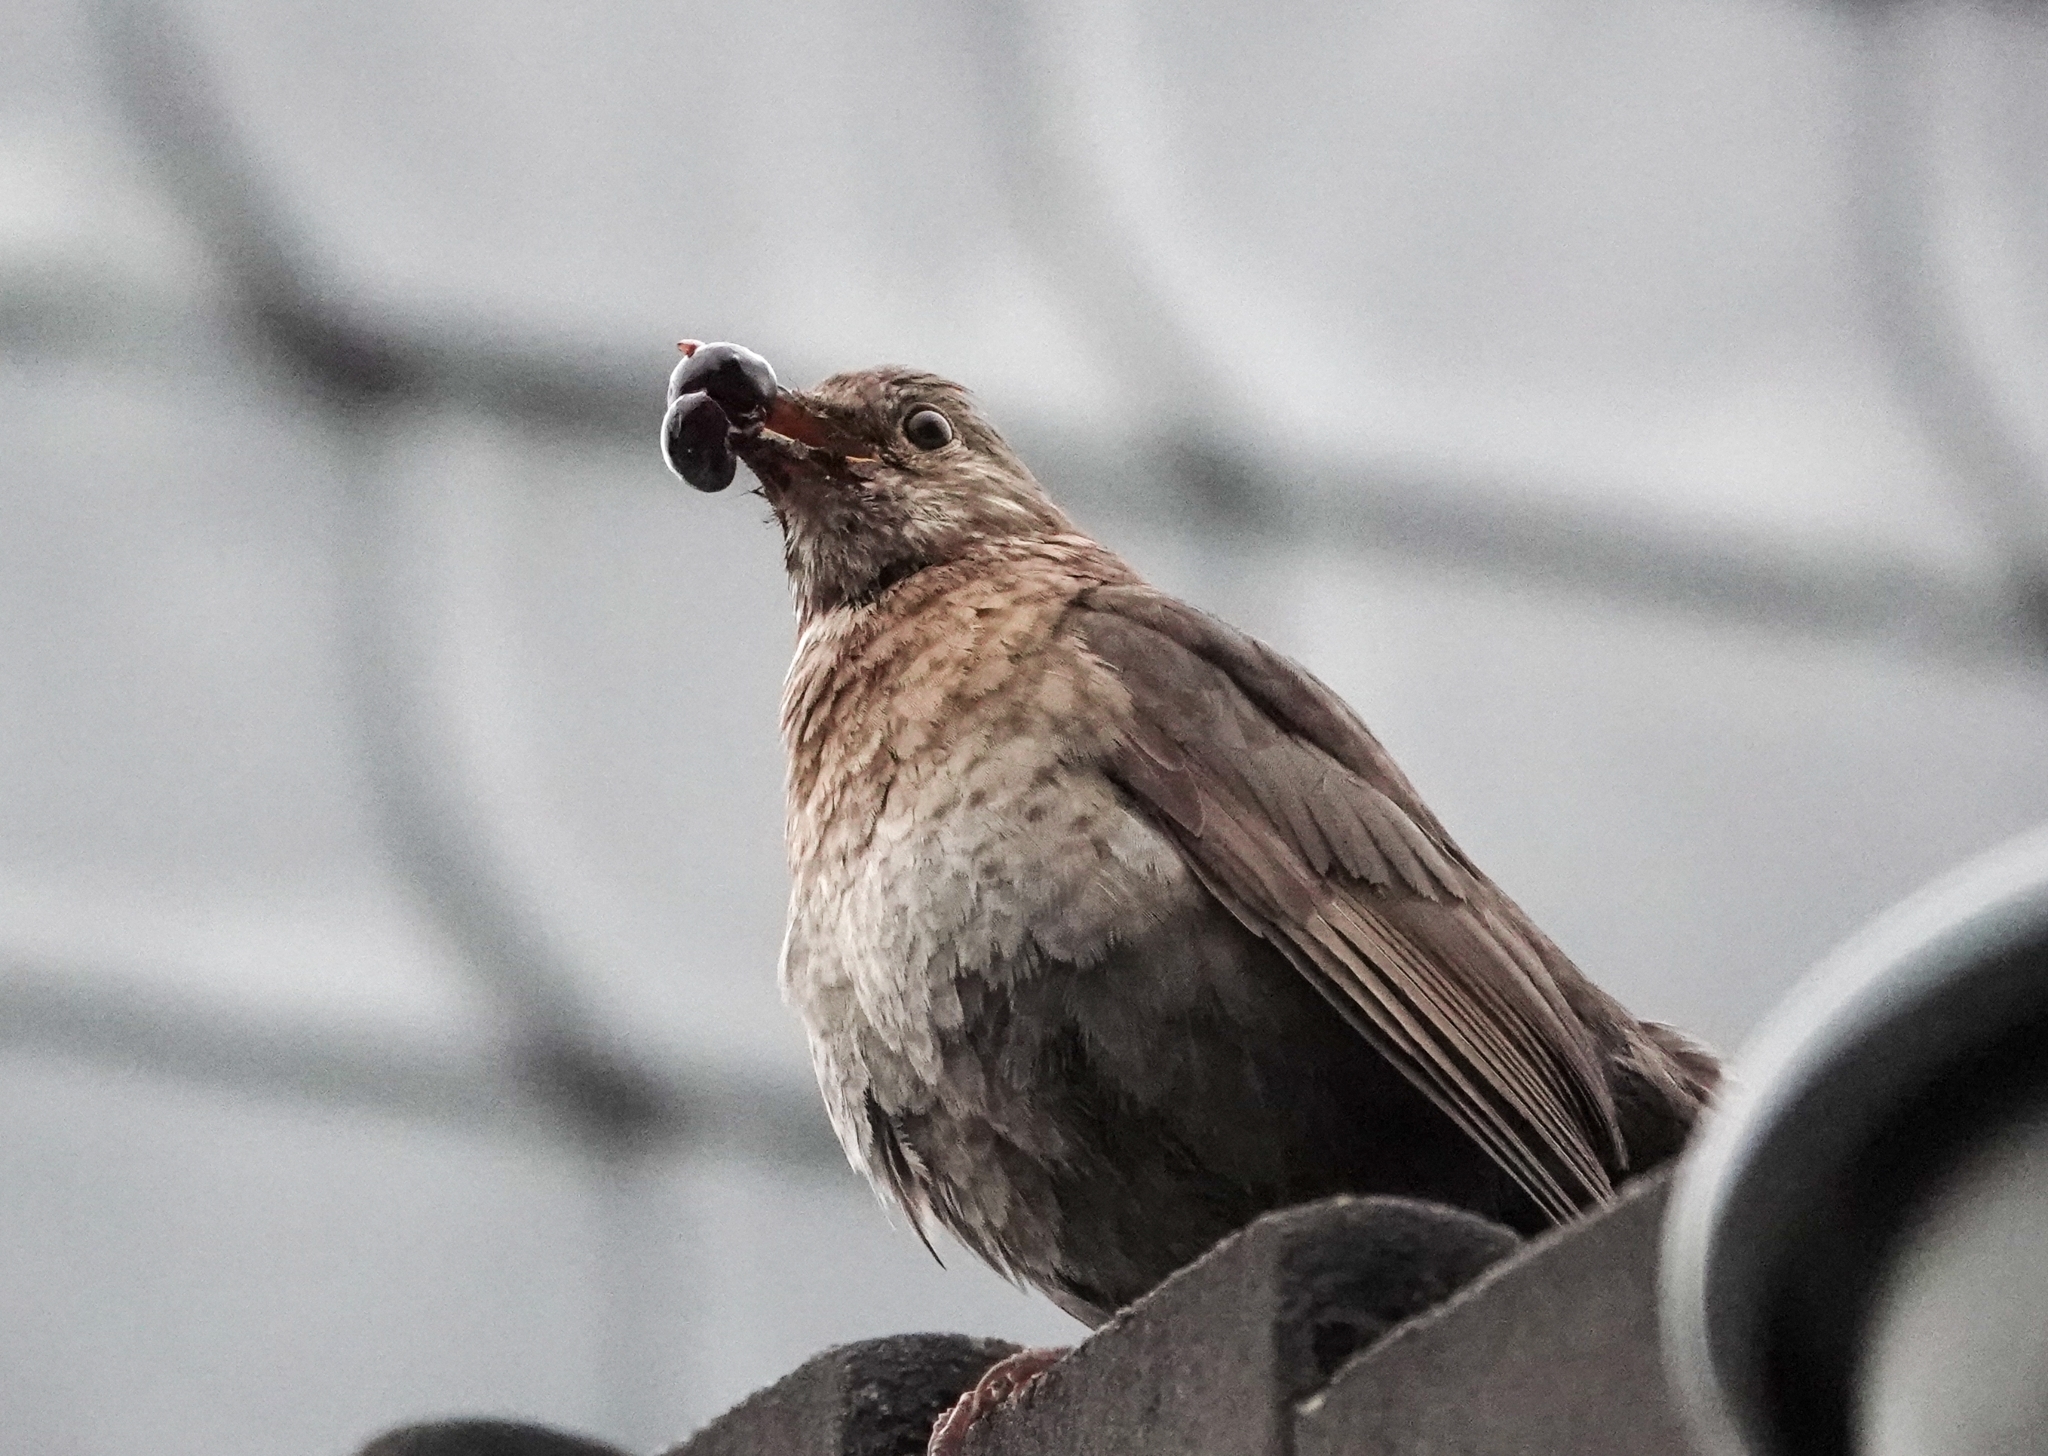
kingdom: Animalia
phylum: Chordata
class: Aves
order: Passeriformes
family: Turdidae
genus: Turdus
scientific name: Turdus merula
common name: Common blackbird
